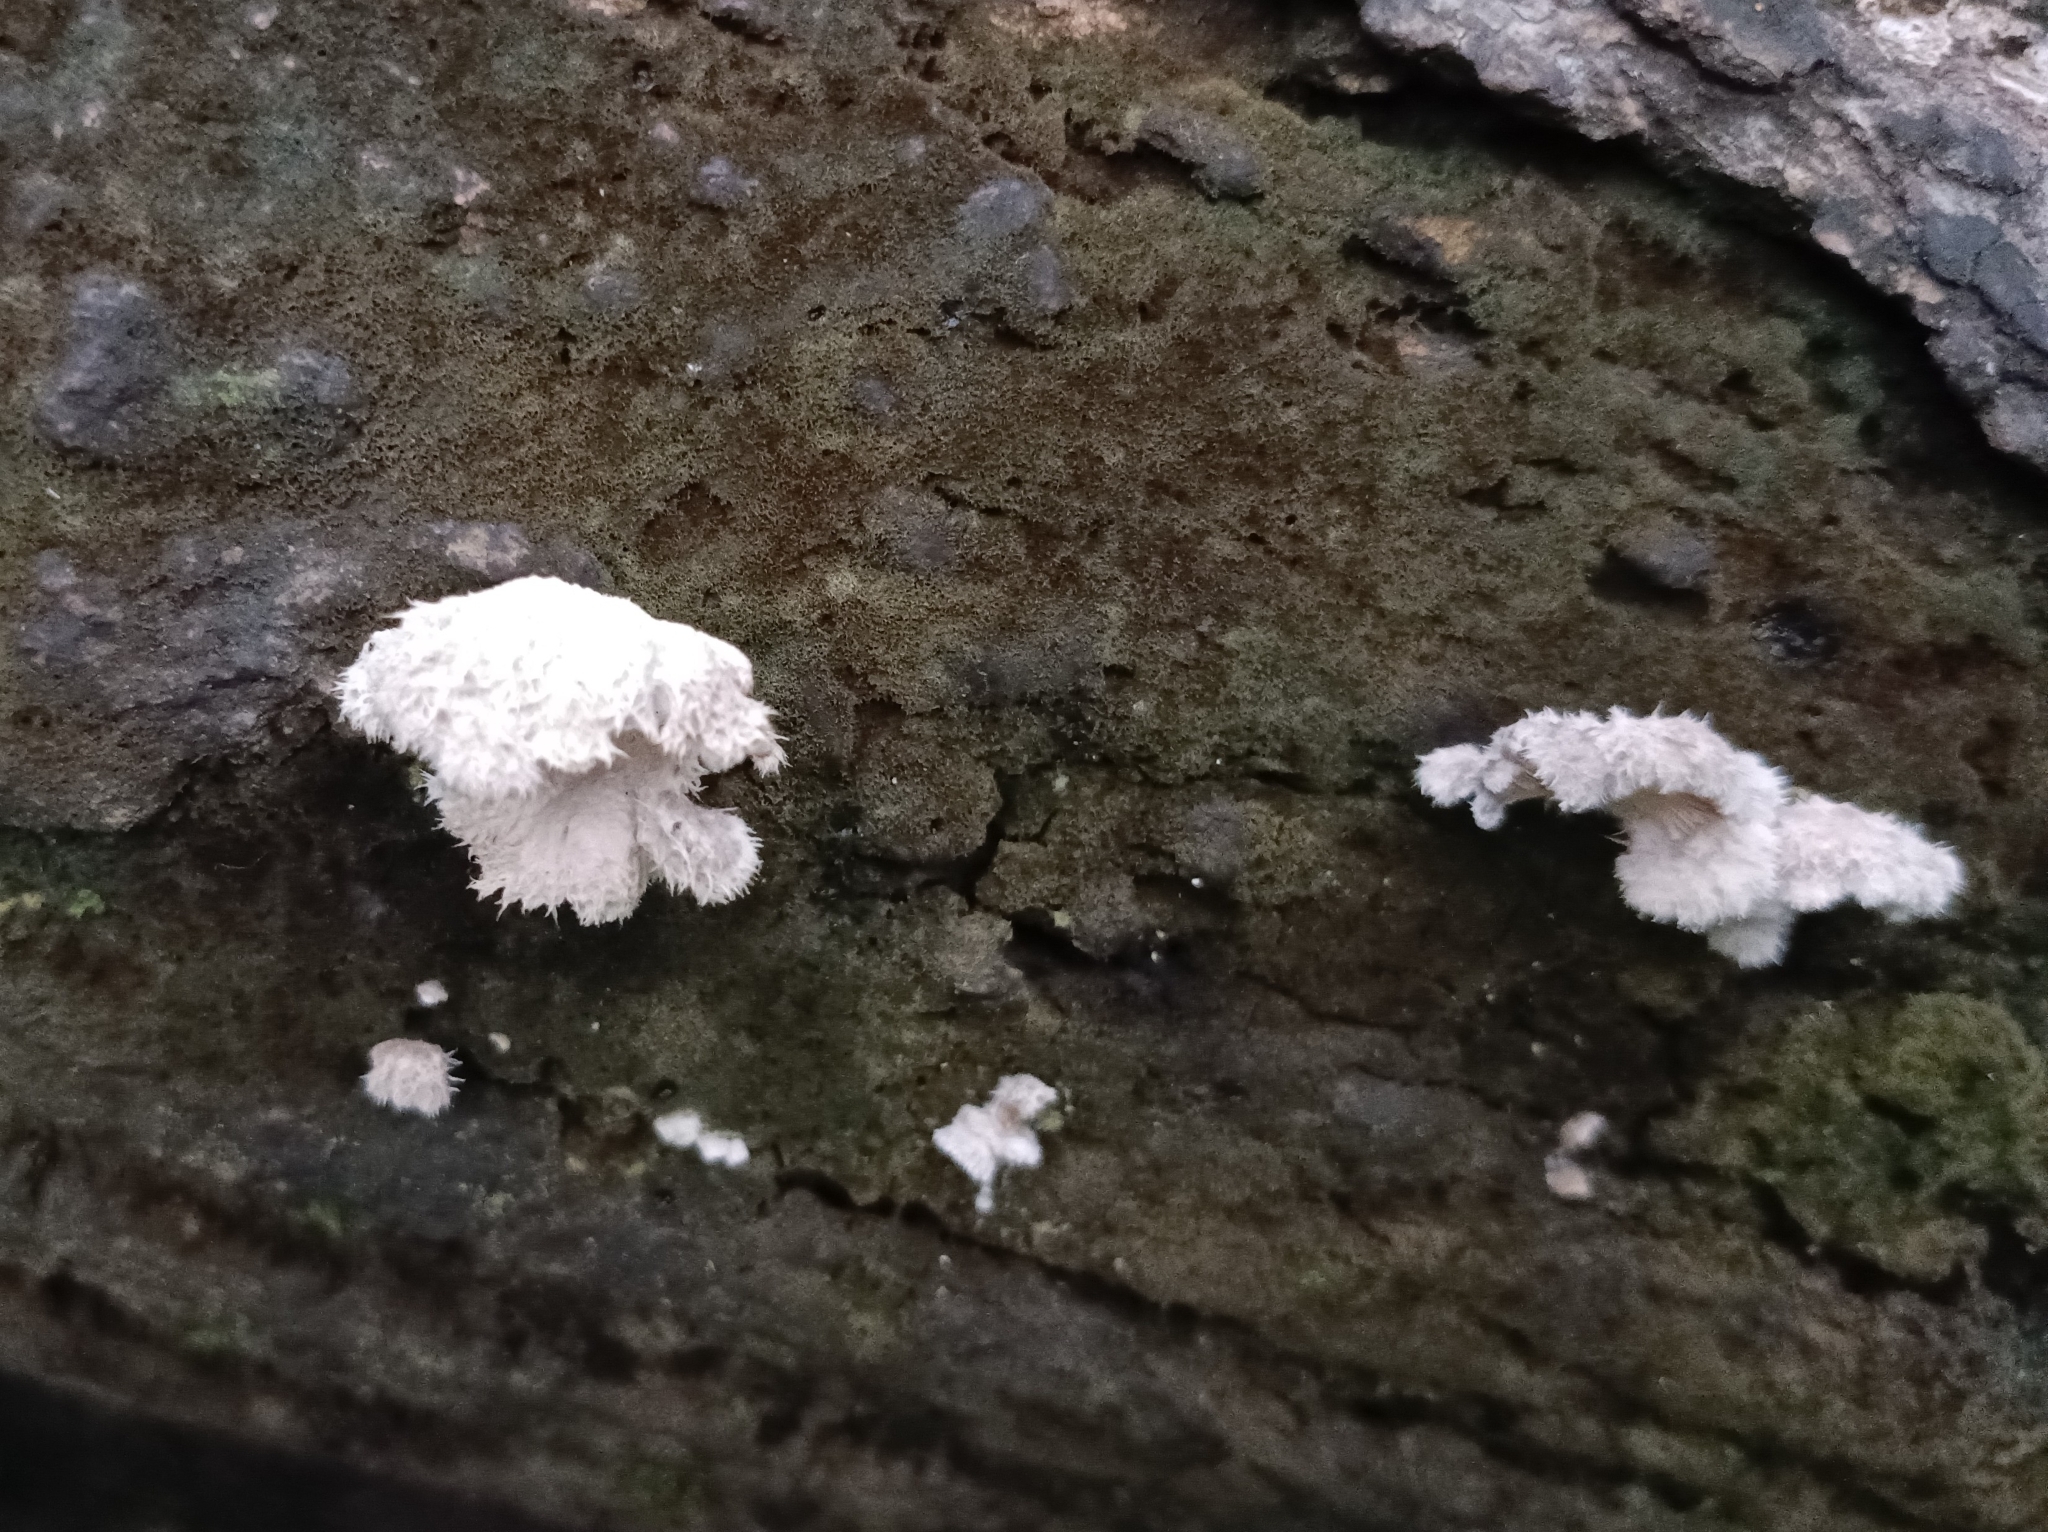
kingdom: Fungi
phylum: Basidiomycota
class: Agaricomycetes
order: Agaricales
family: Schizophyllaceae
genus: Schizophyllum
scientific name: Schizophyllum commune
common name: Common porecrust
